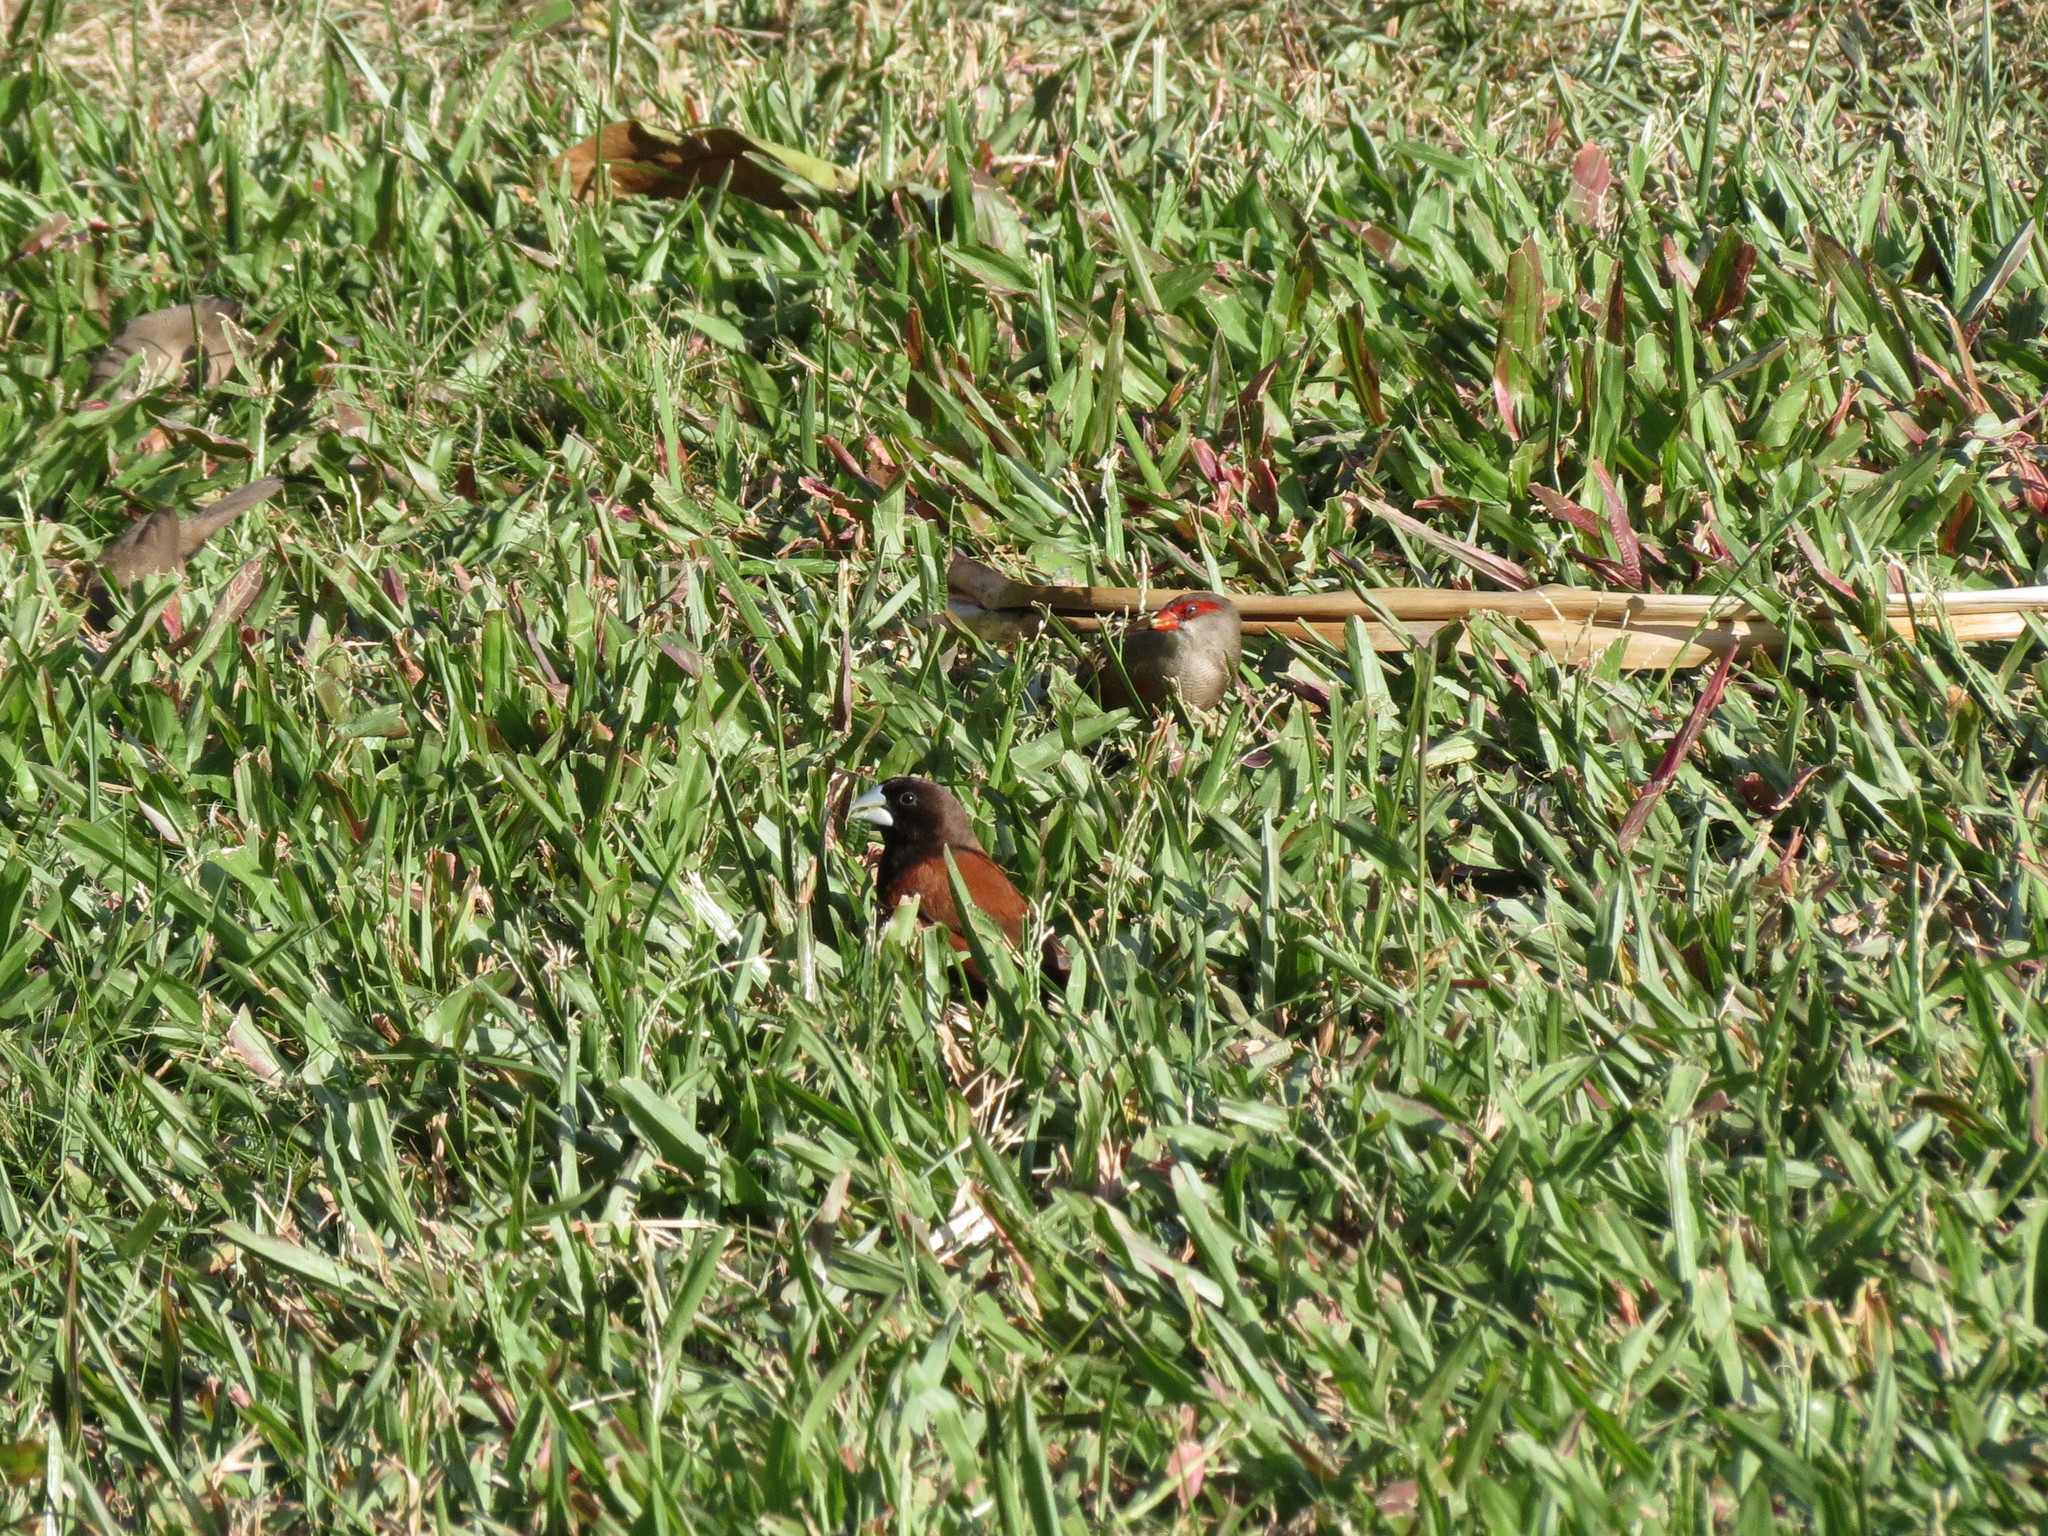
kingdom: Animalia
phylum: Chordata
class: Aves
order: Passeriformes
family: Estrildidae
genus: Lonchura
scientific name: Lonchura atricapilla
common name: Chestnut munia
